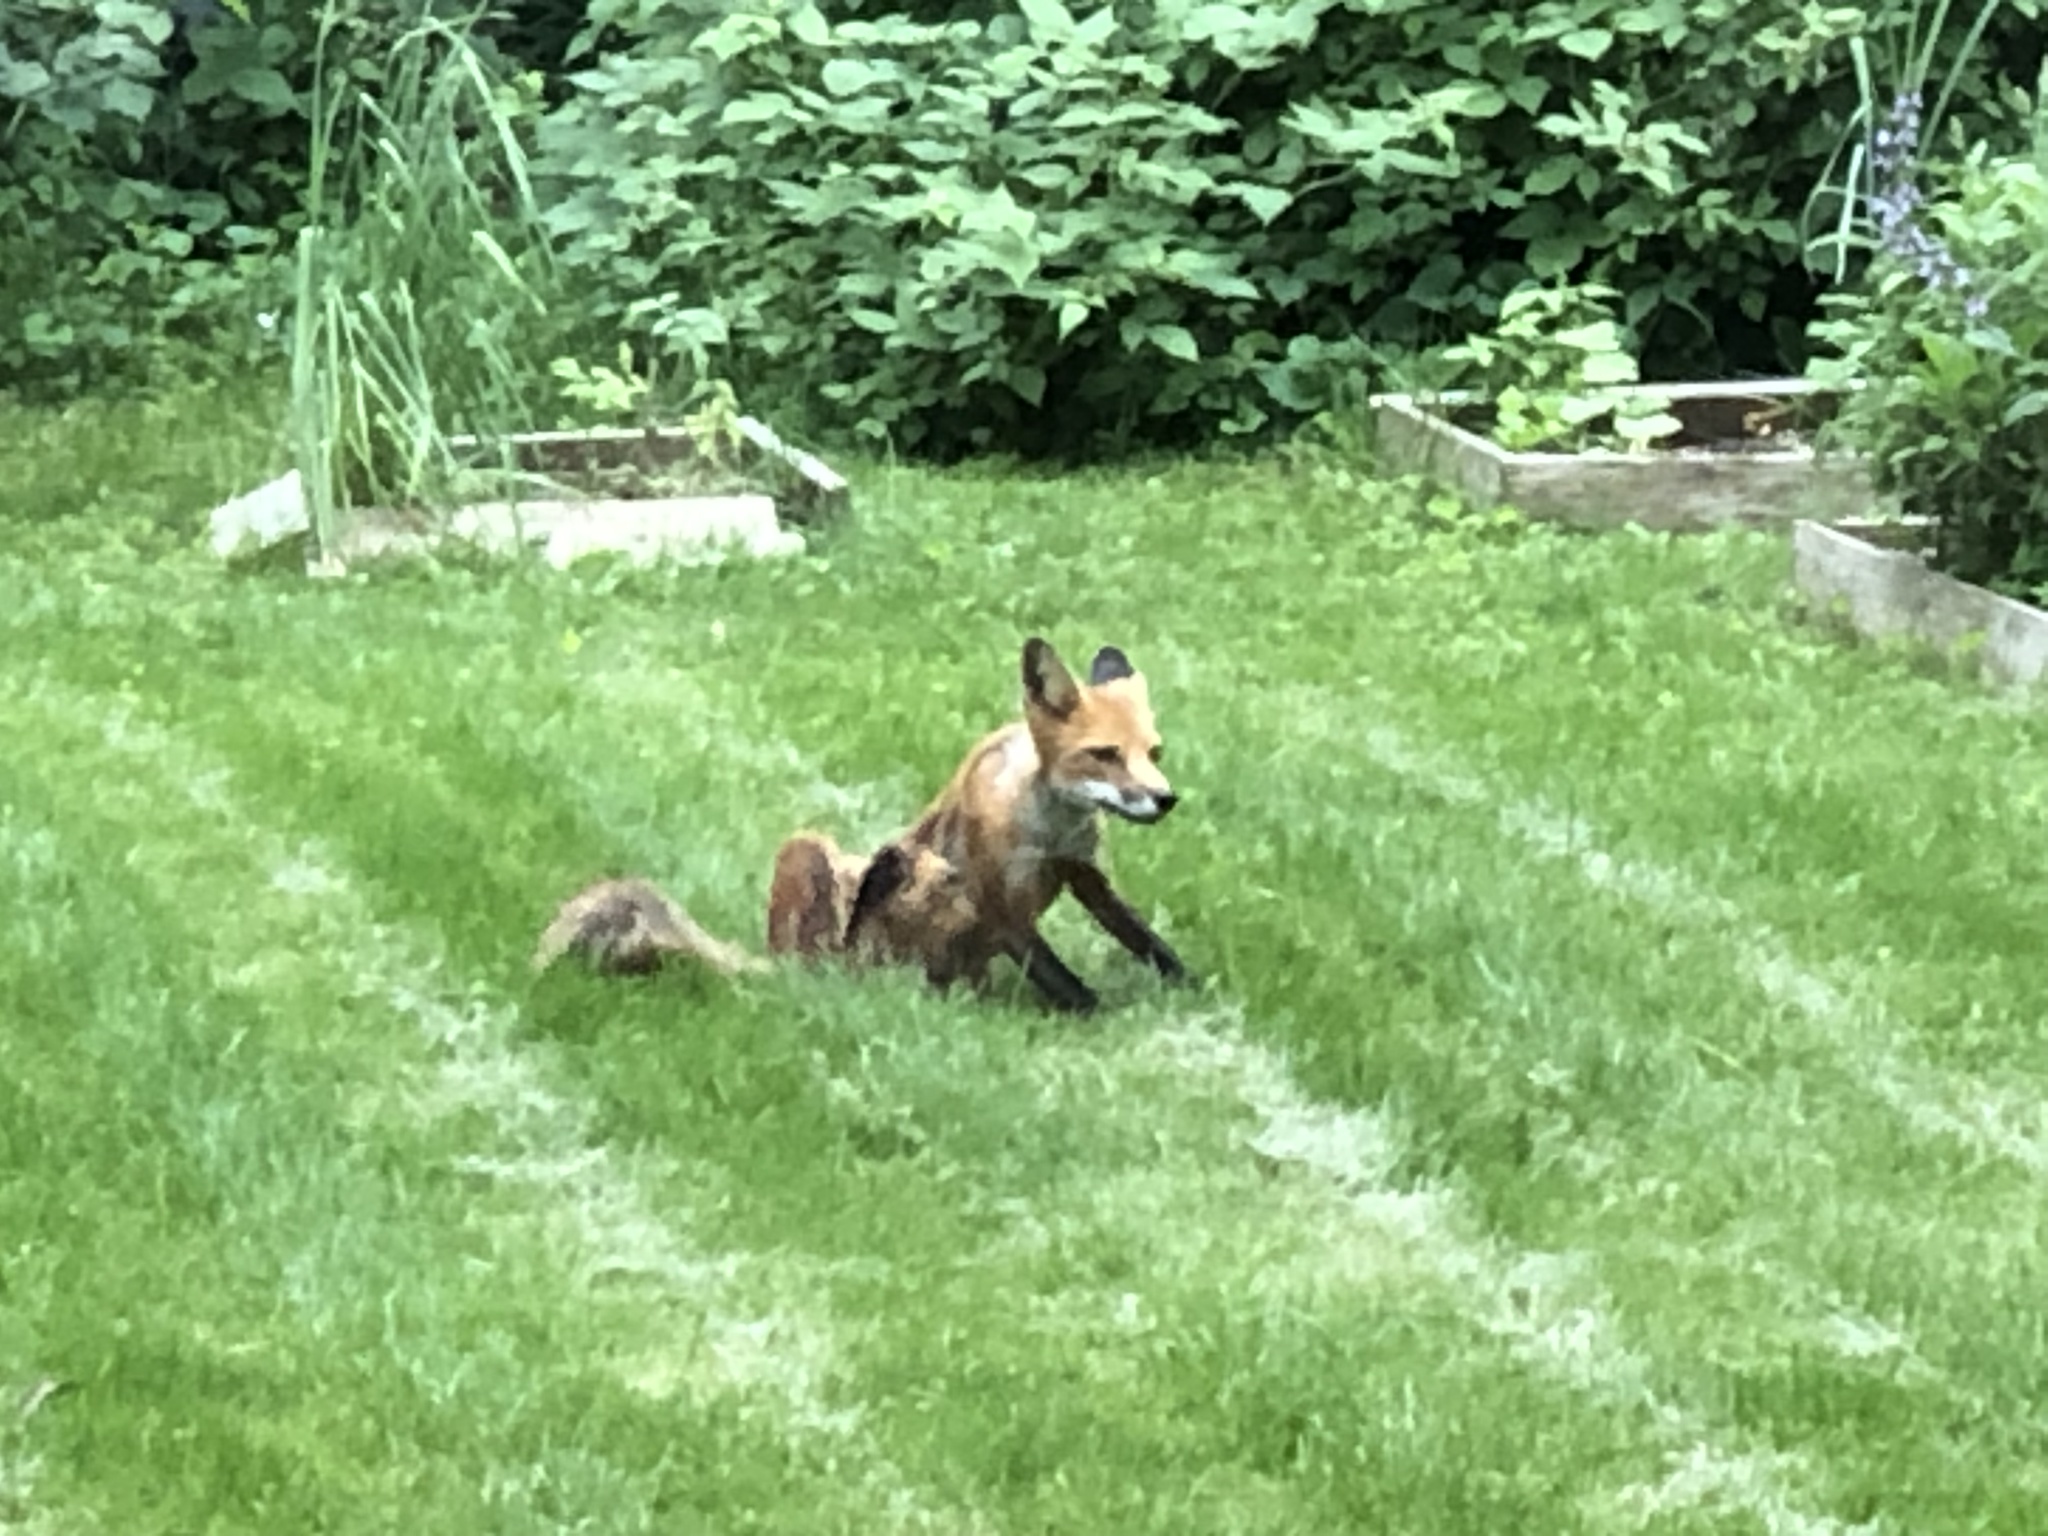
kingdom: Animalia
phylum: Chordata
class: Mammalia
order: Carnivora
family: Canidae
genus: Vulpes
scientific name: Vulpes vulpes
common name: Red fox
